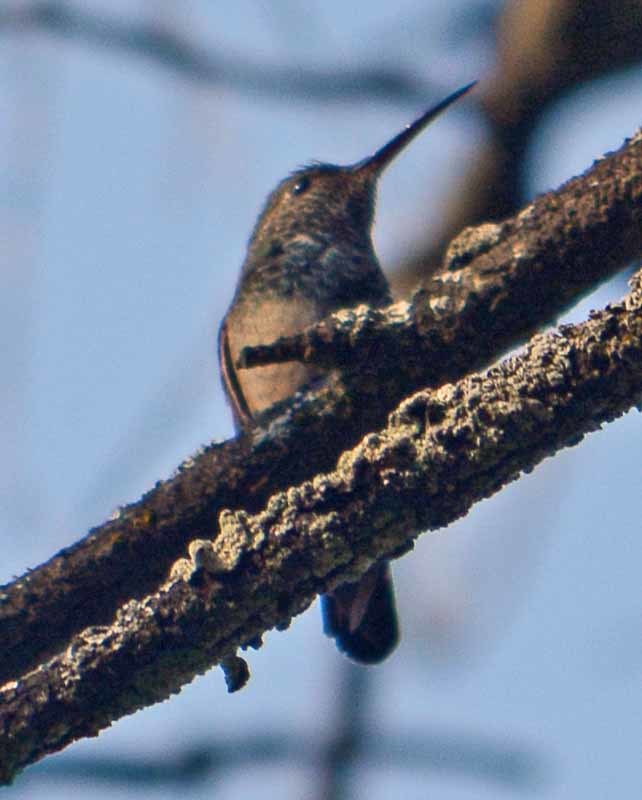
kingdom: Animalia
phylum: Chordata
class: Aves
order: Apodiformes
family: Trochilidae
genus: Saucerottia
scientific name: Saucerottia beryllina
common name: Berylline hummingbird
